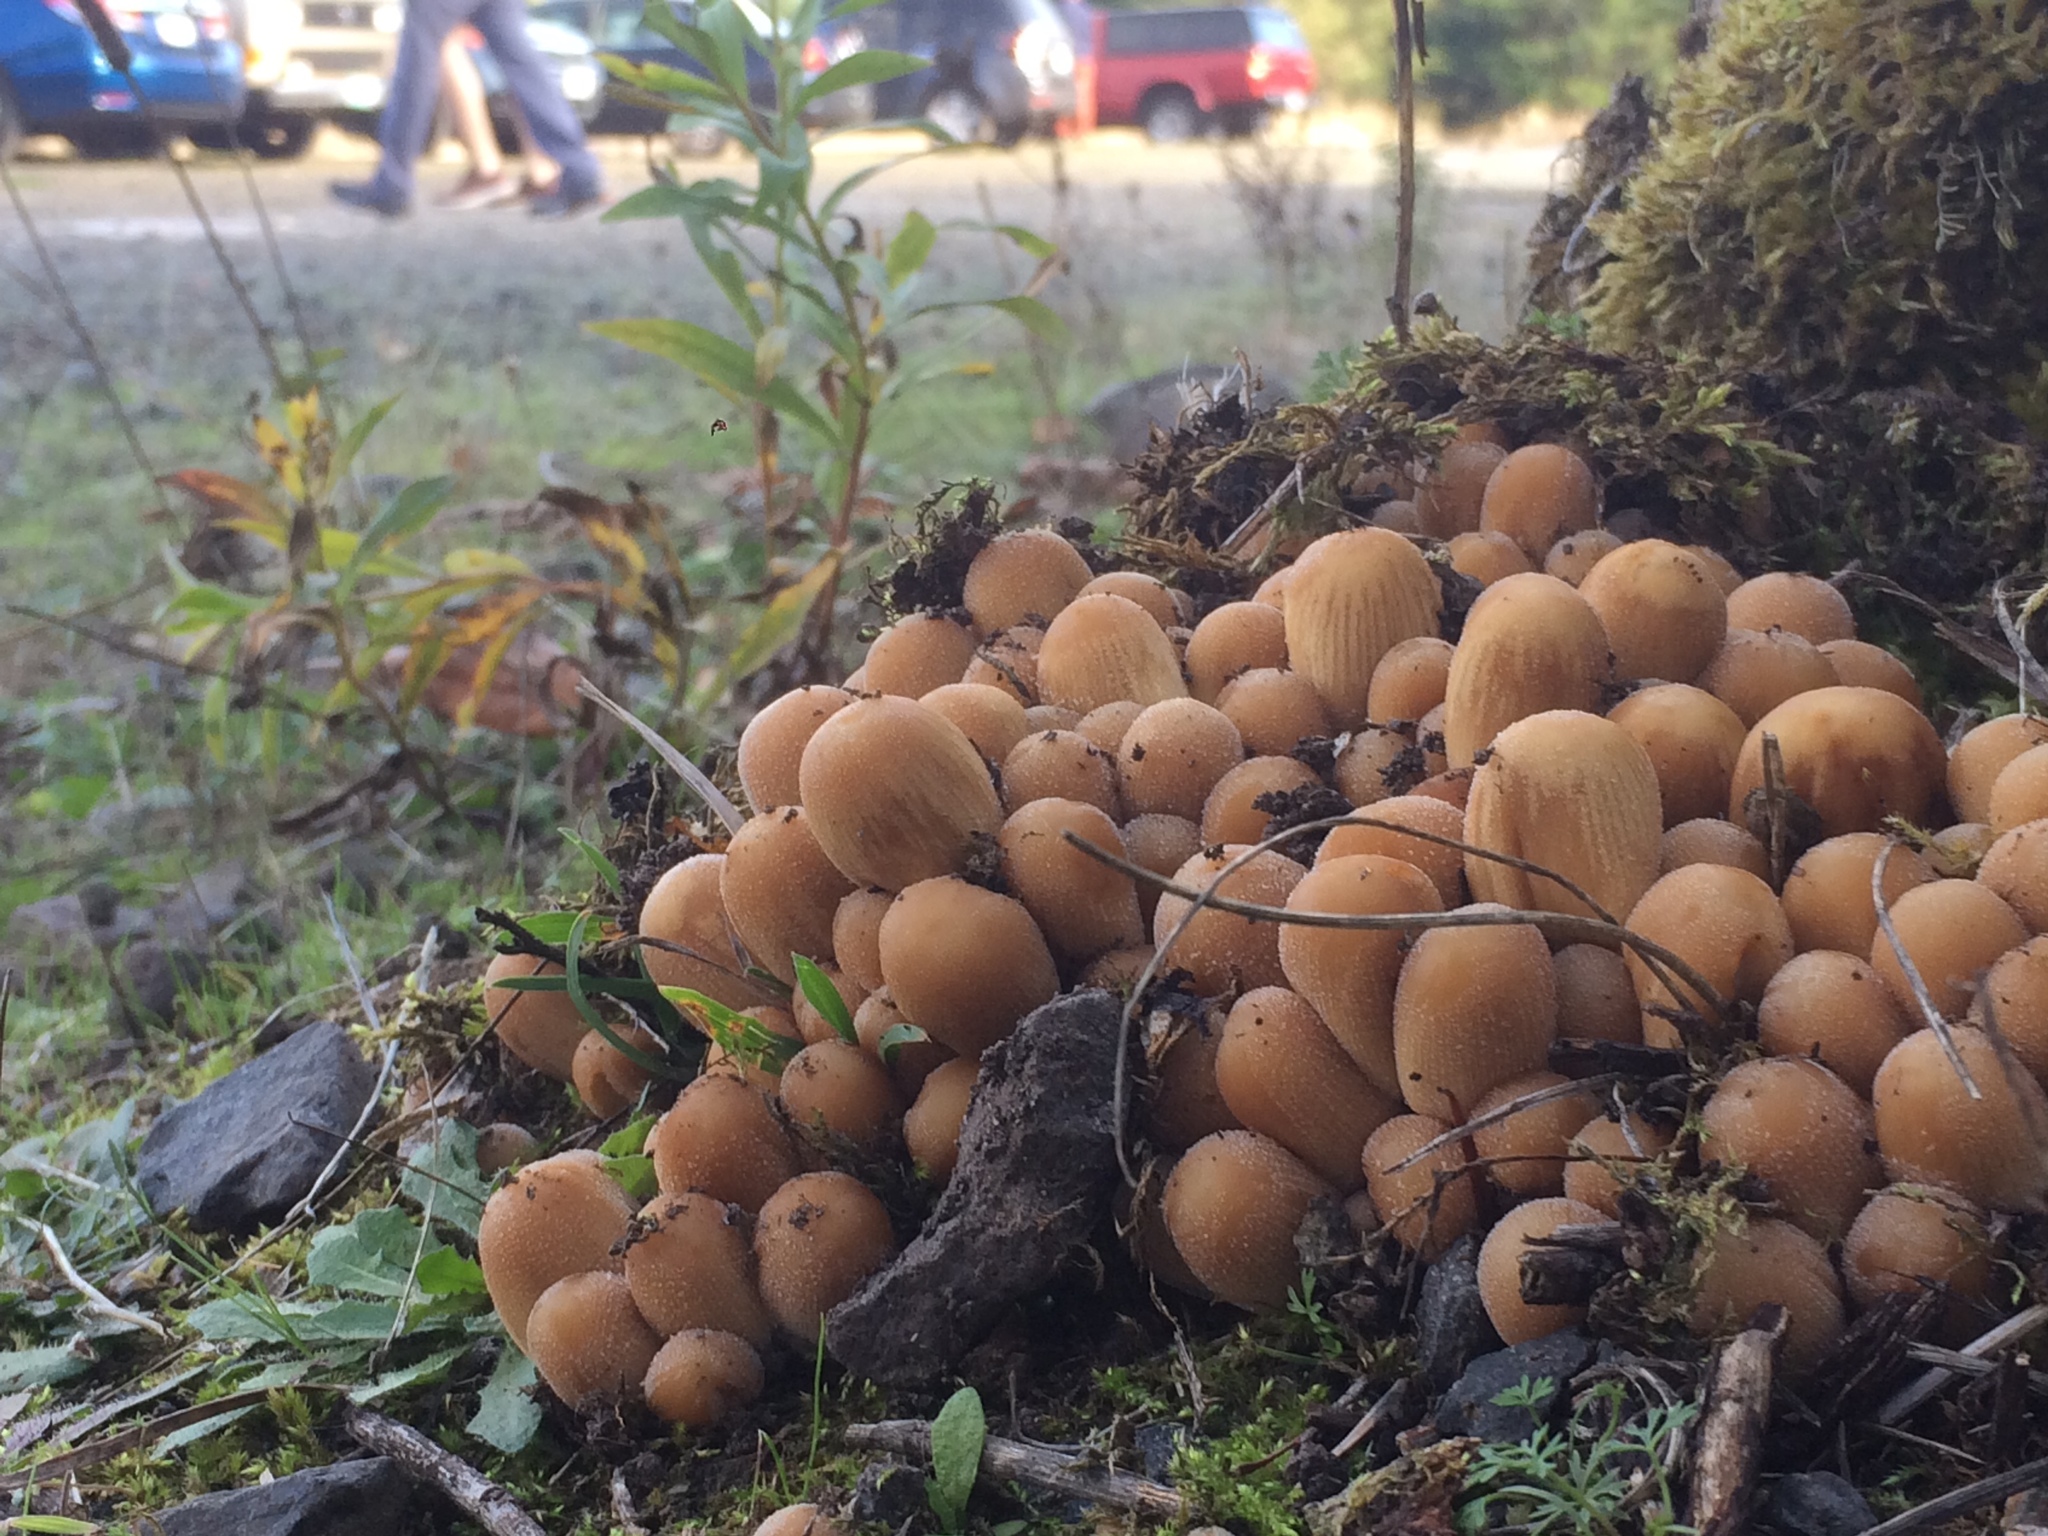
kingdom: Fungi
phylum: Basidiomycota
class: Agaricomycetes
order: Agaricales
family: Psathyrellaceae
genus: Coprinellus
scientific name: Coprinellus micaceus
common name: Glistening ink-cap
